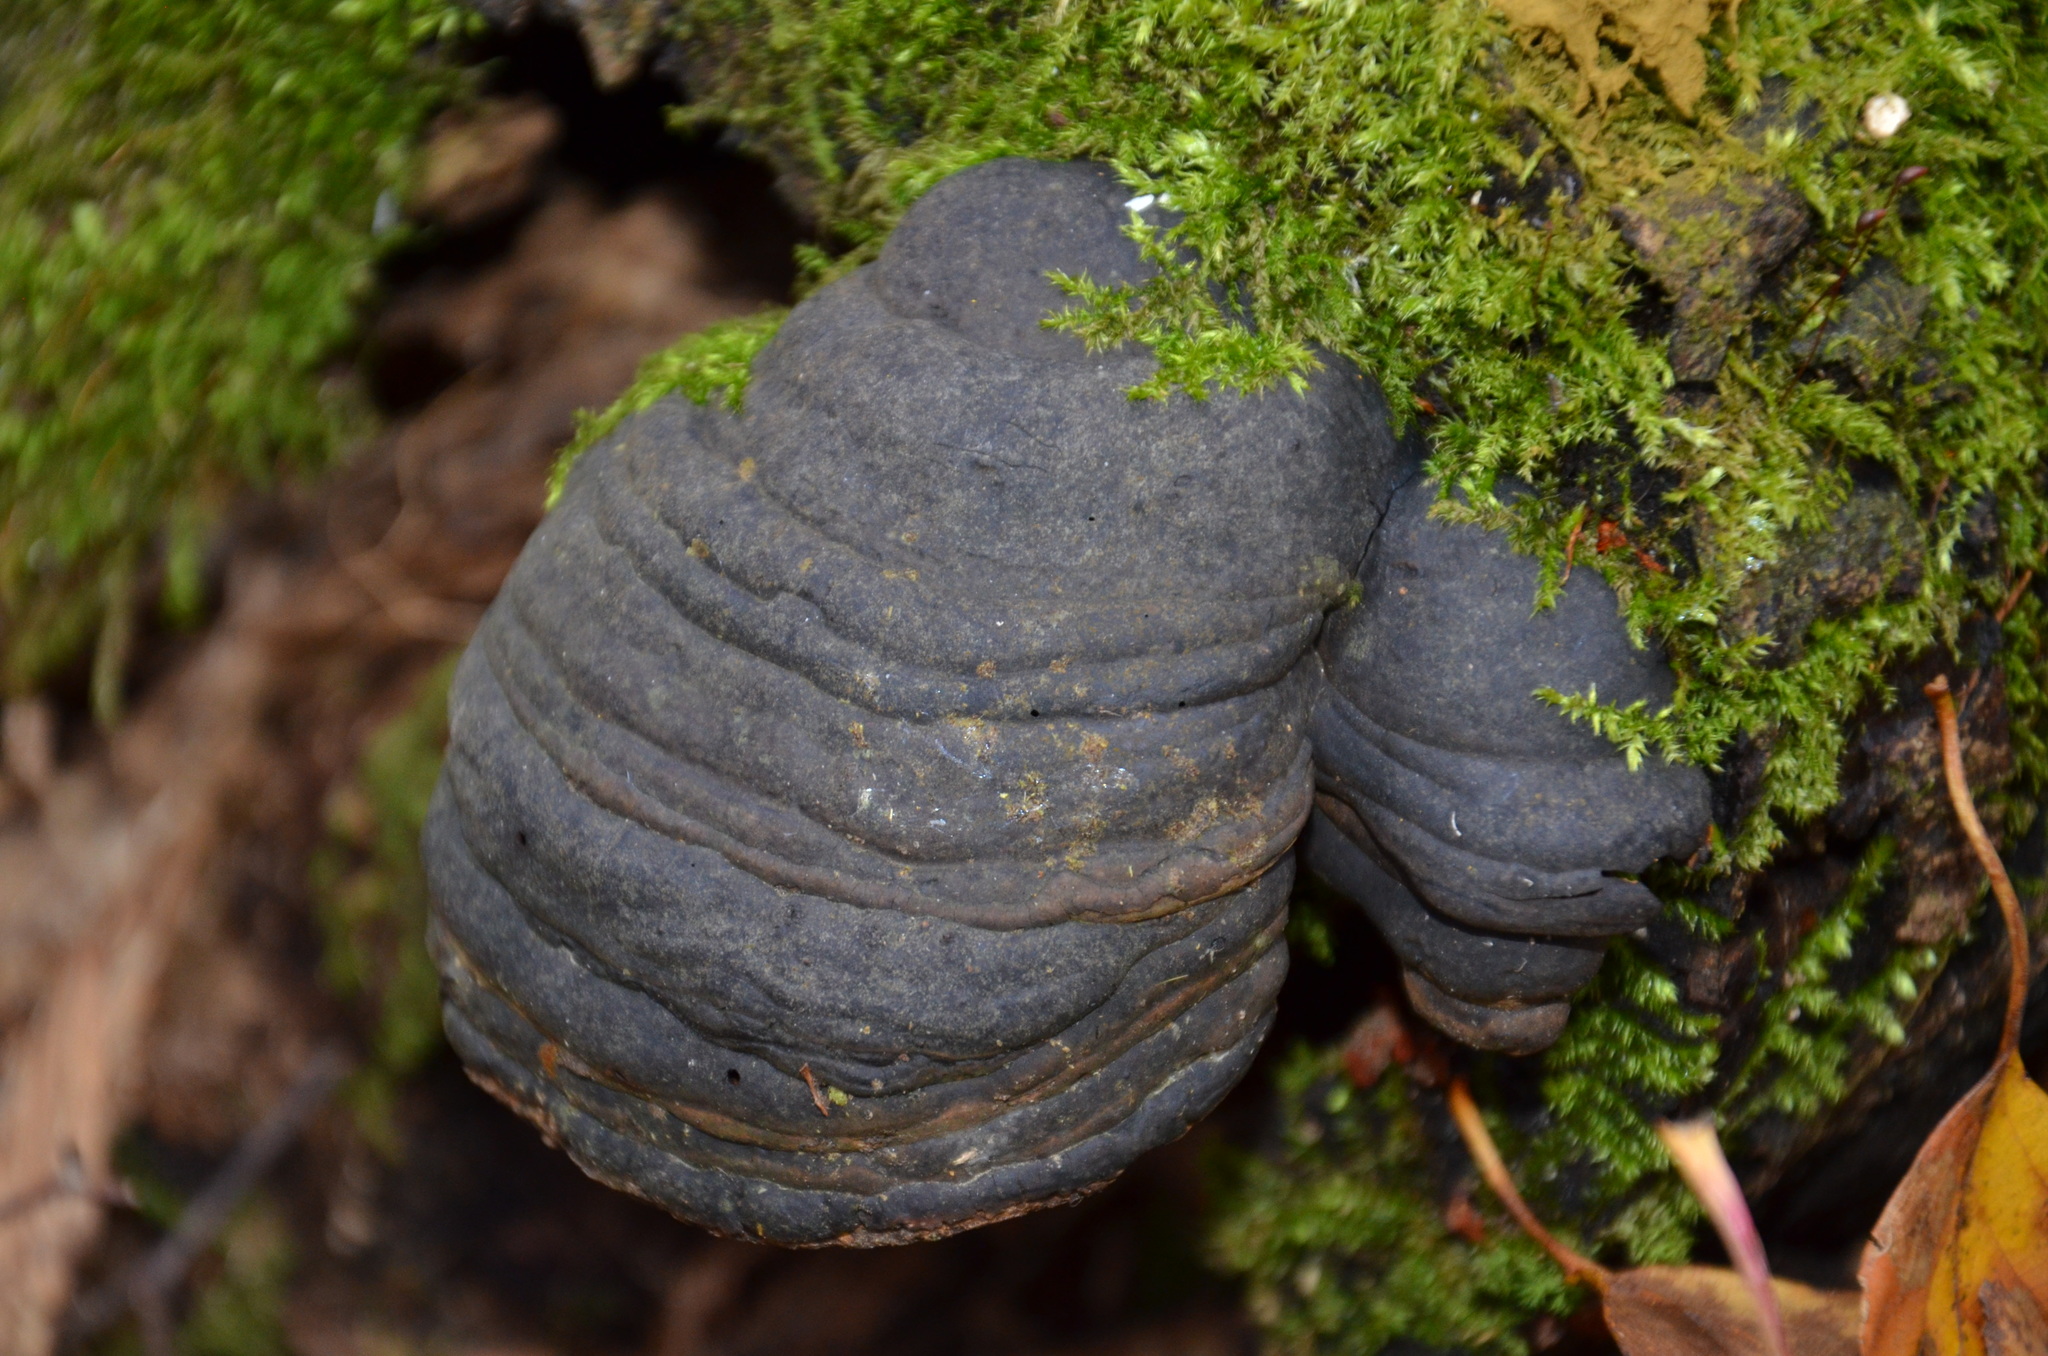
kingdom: Fungi
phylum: Basidiomycota
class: Agaricomycetes
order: Polyporales
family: Polyporaceae
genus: Fomes
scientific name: Fomes fomentarius
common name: Hoof fungus
